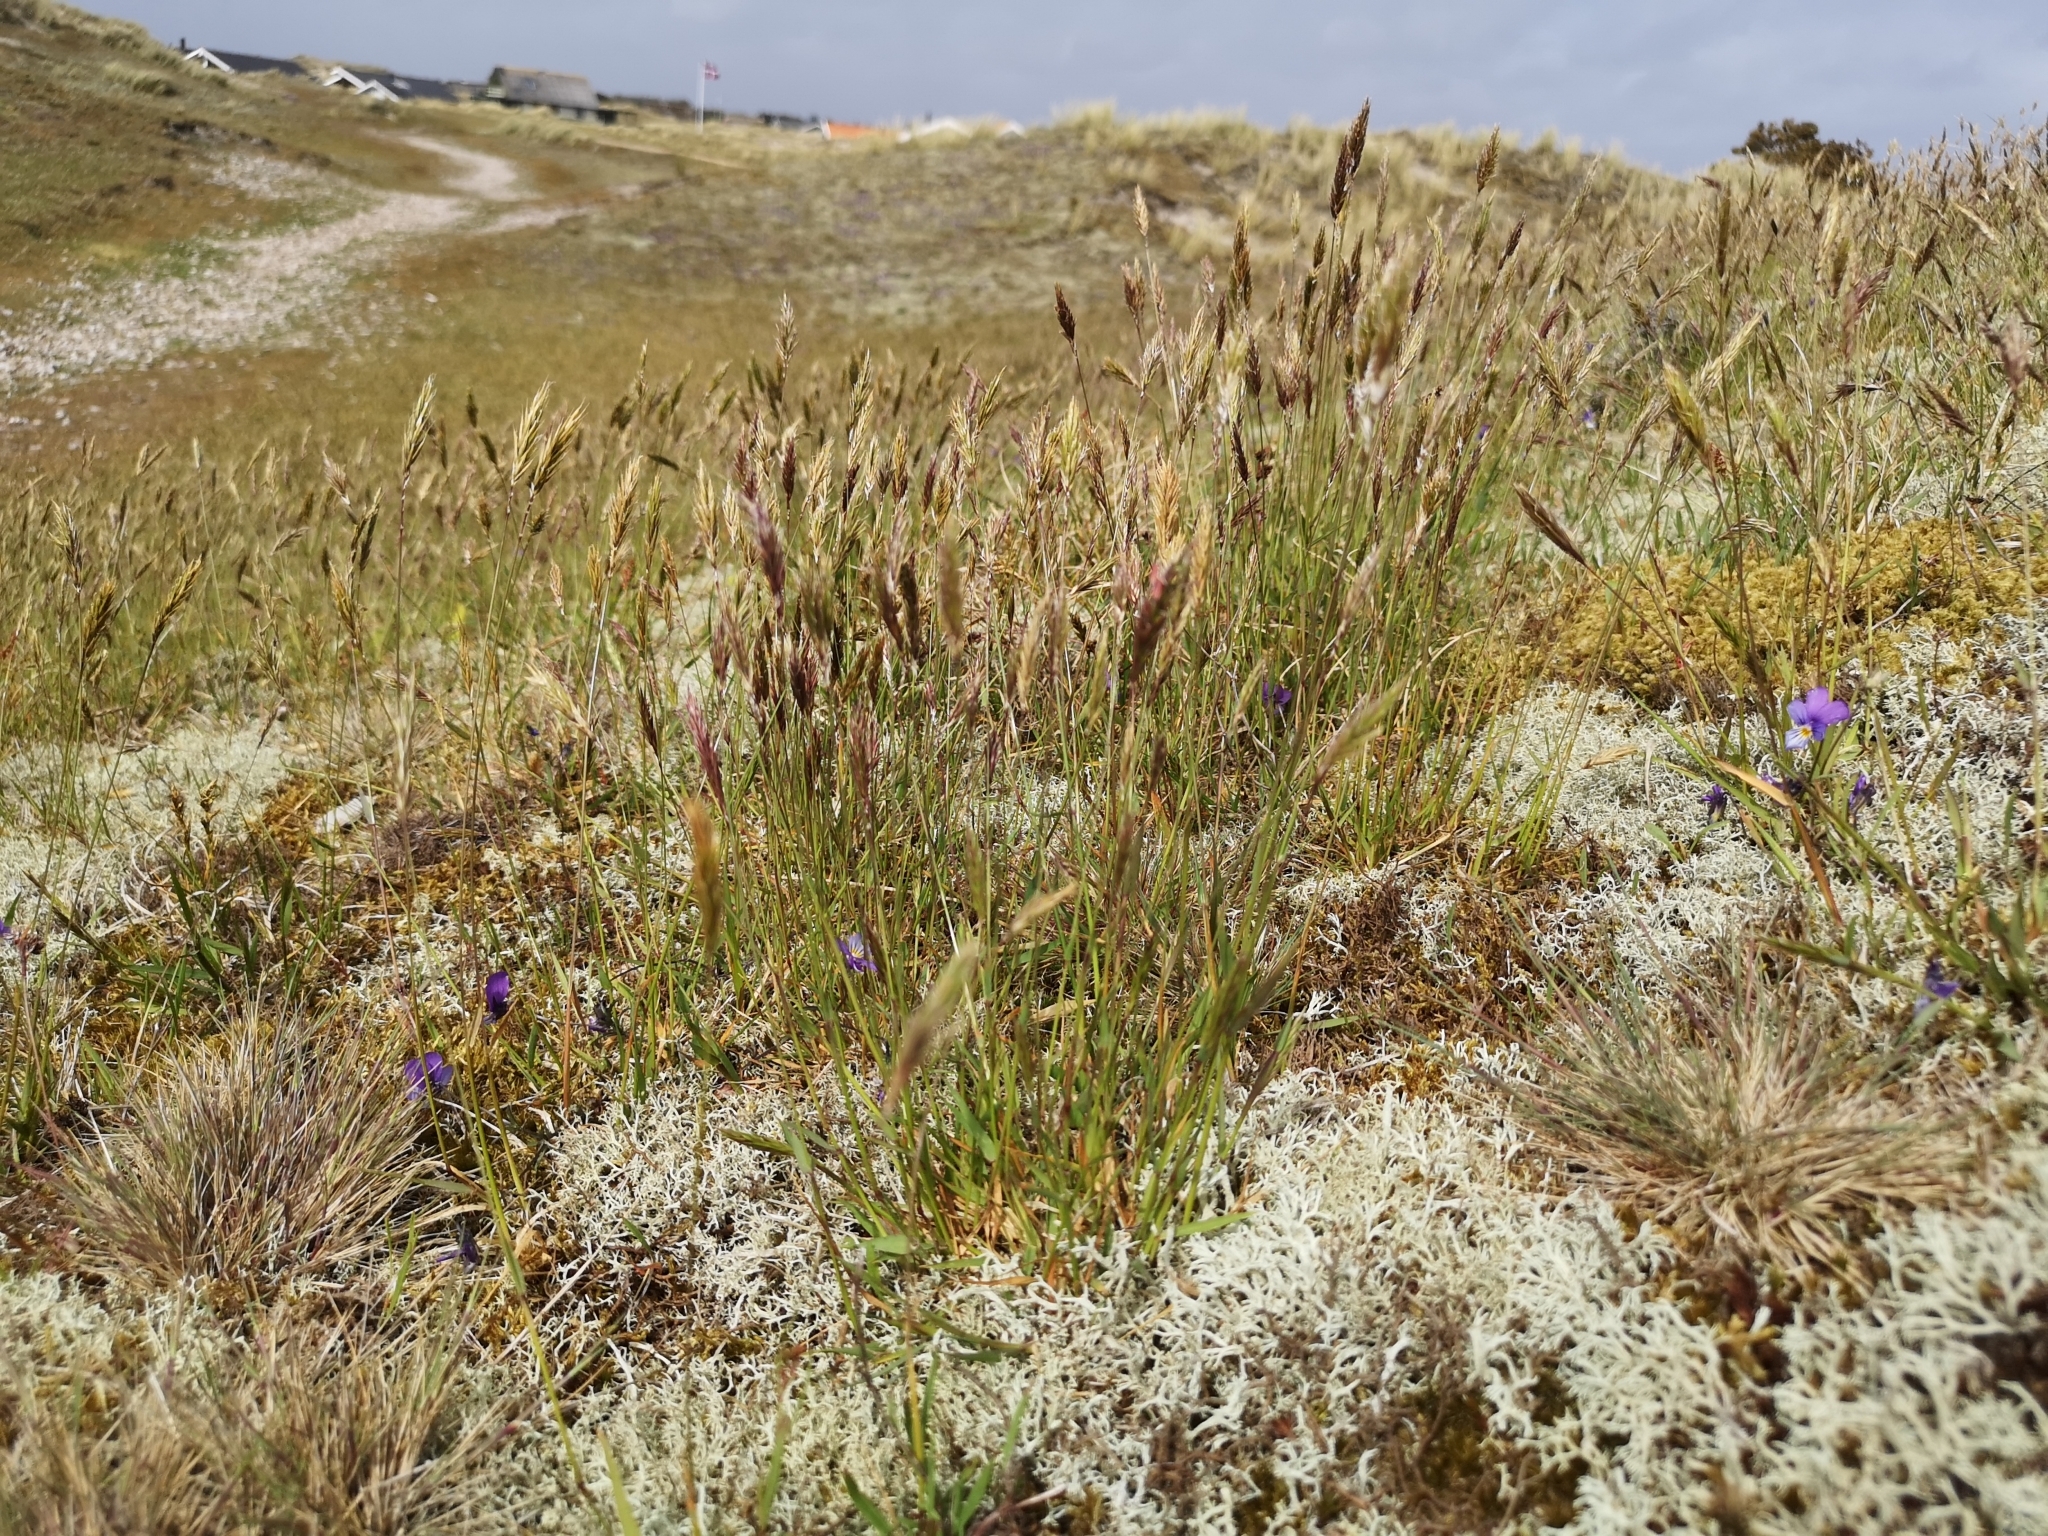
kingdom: Plantae
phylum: Tracheophyta
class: Liliopsida
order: Poales
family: Poaceae
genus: Anthoxanthum
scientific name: Anthoxanthum odoratum
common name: Sweet vernalgrass
